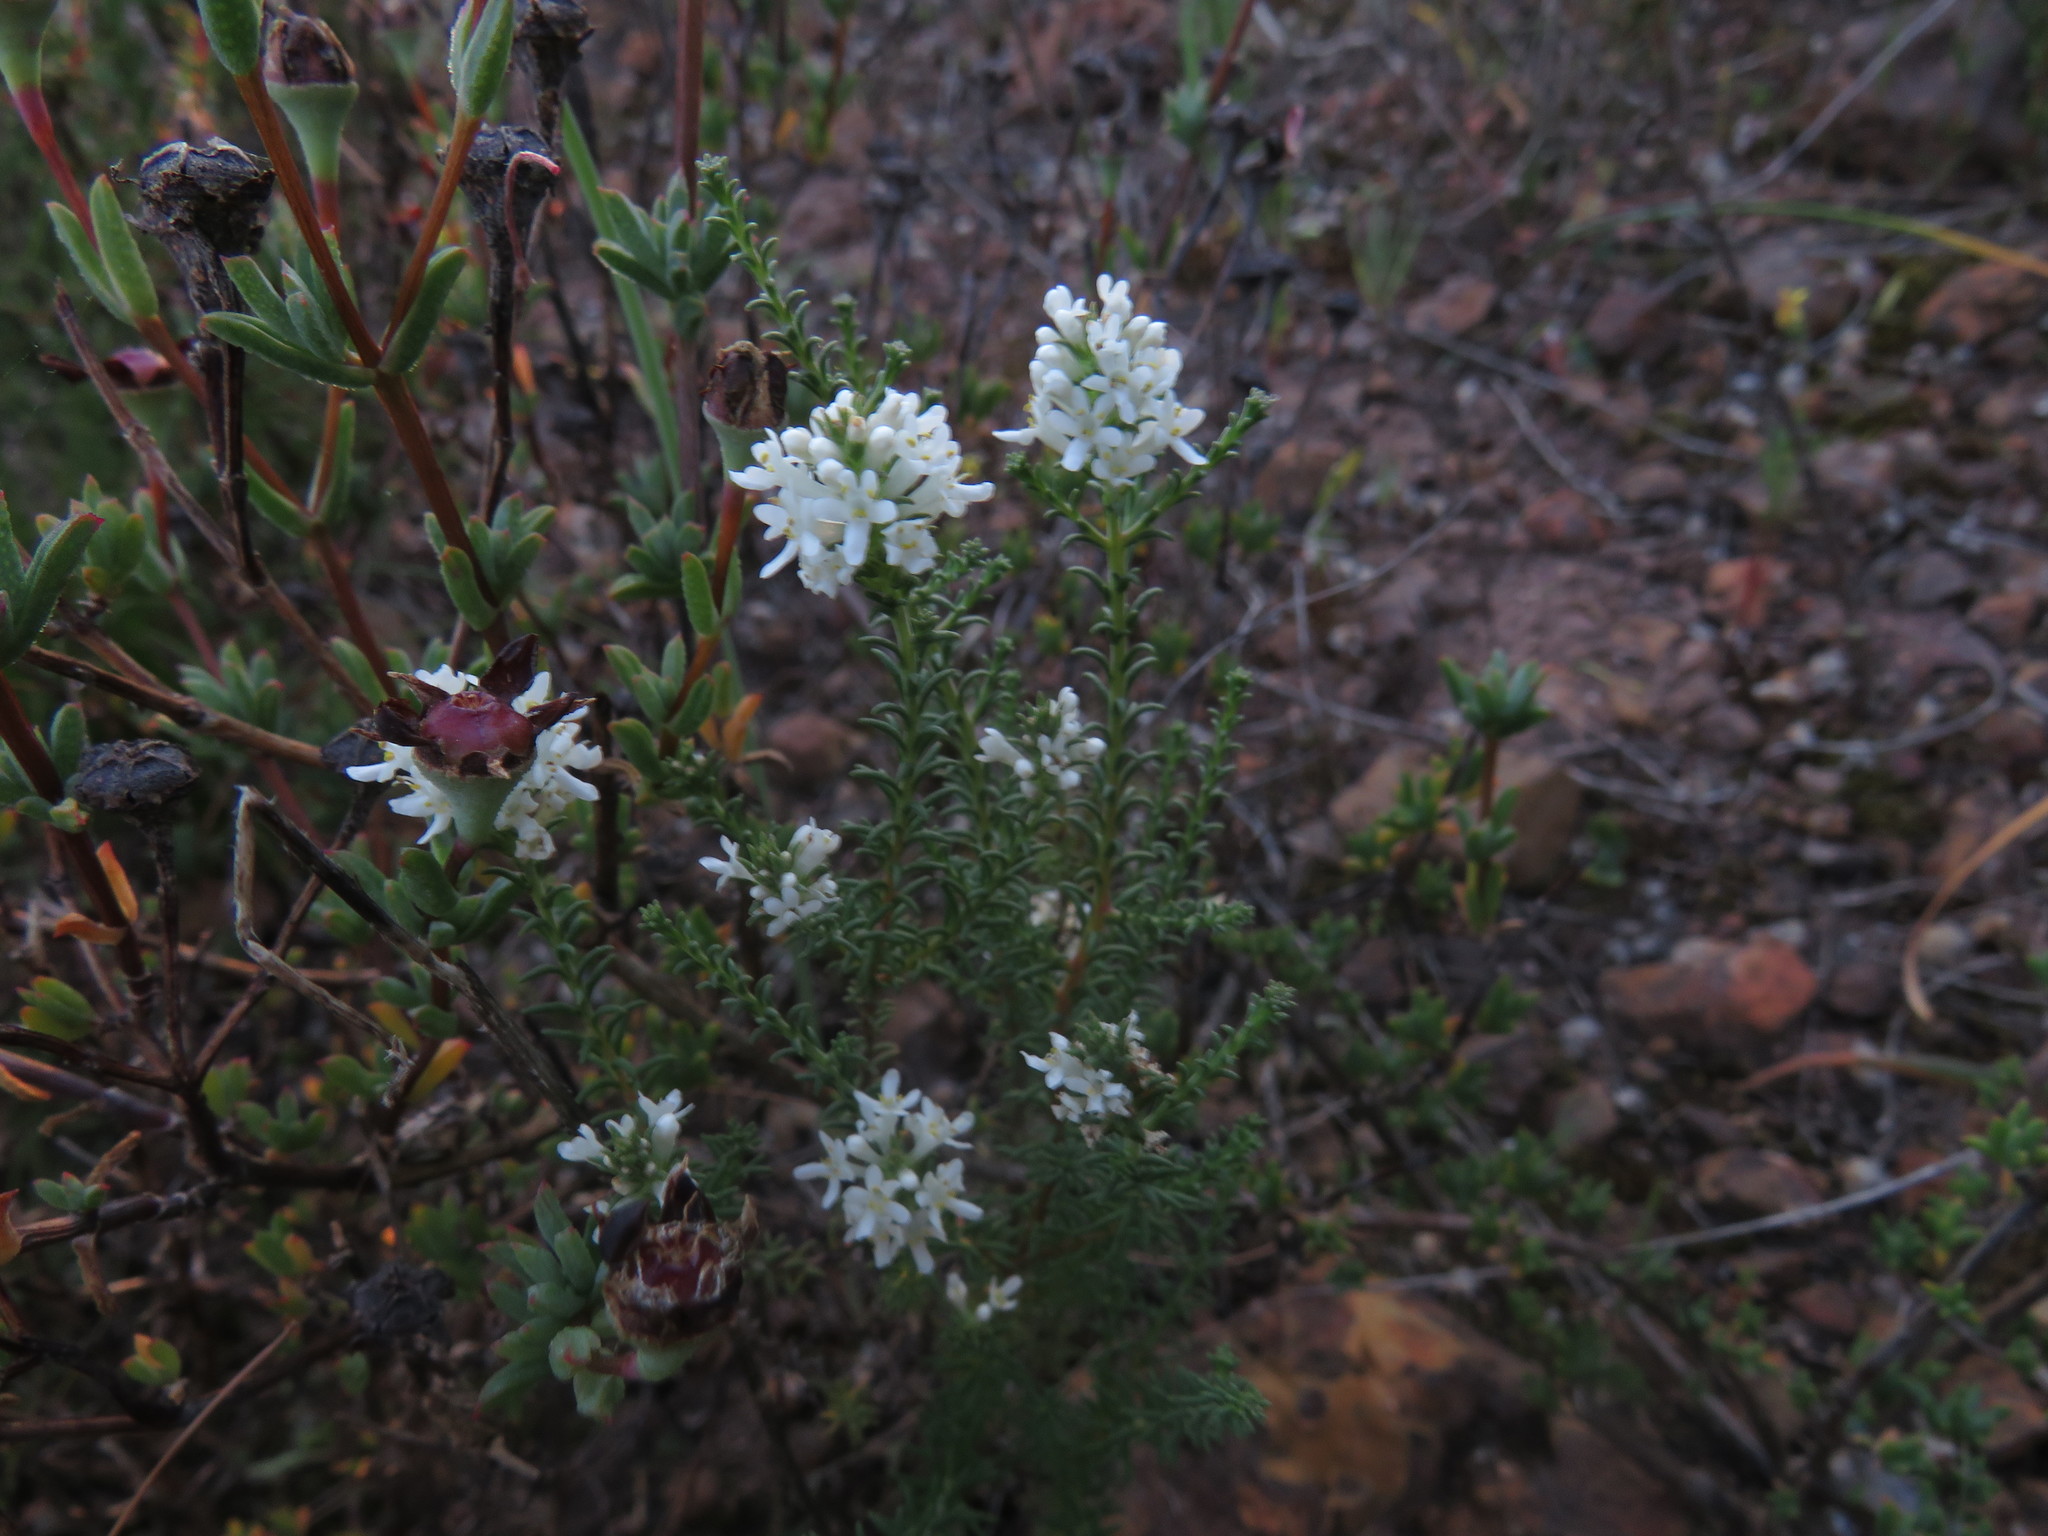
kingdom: Plantae
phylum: Tracheophyta
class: Magnoliopsida
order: Lamiales
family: Scrophulariaceae
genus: Selago
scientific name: Selago triquetra
